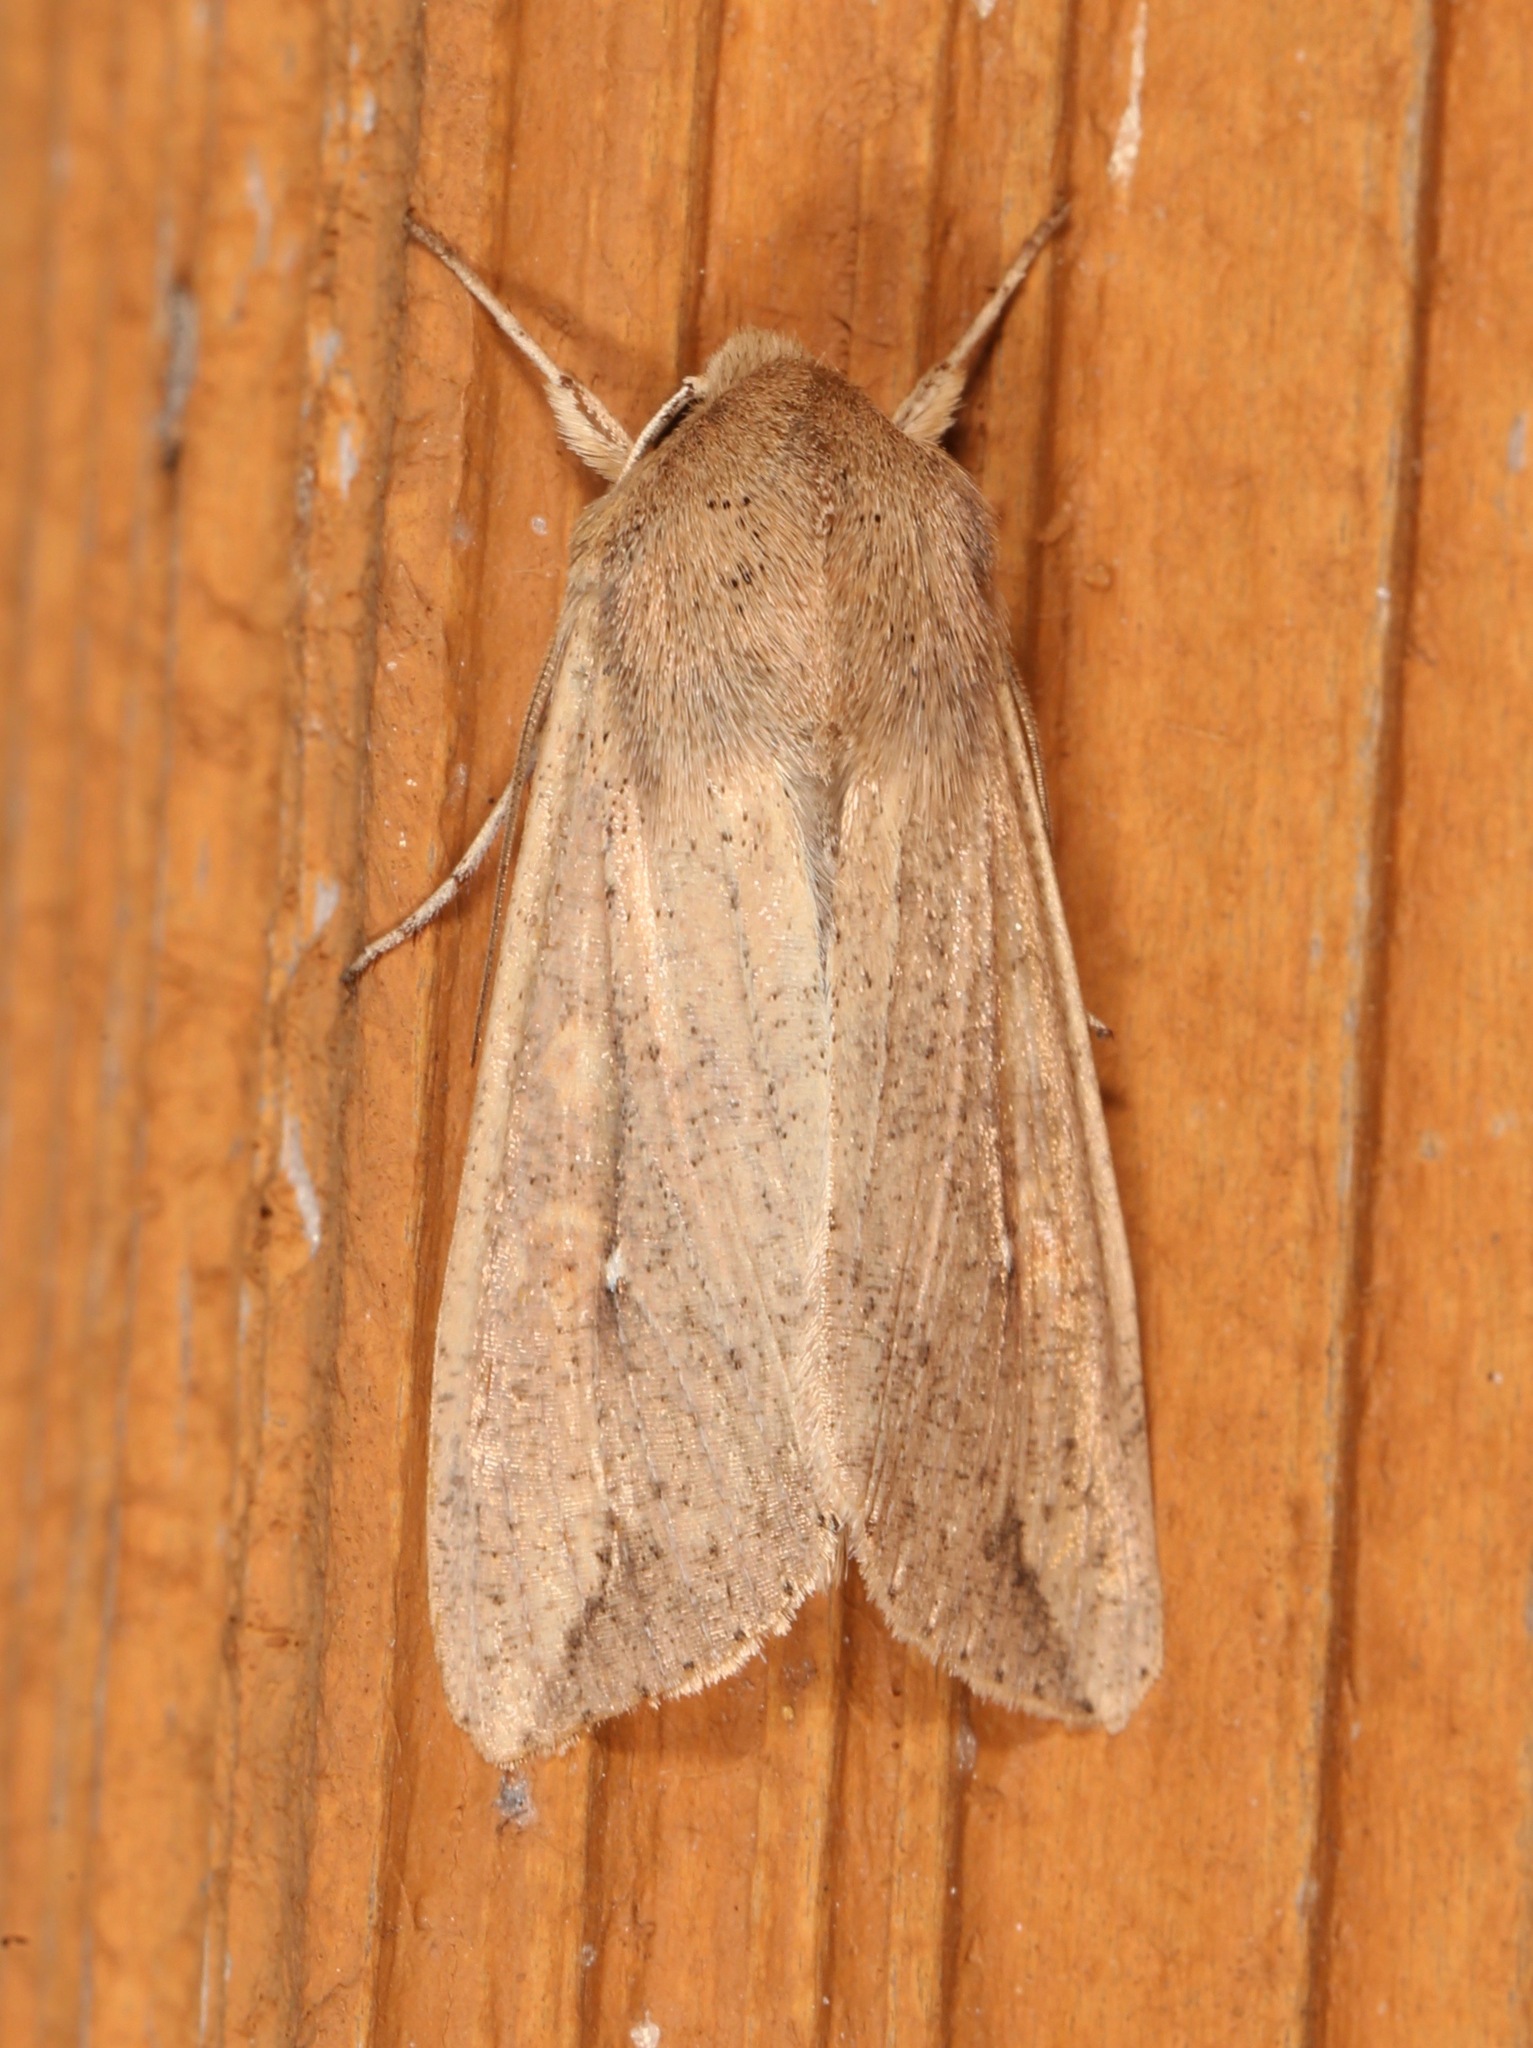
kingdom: Animalia
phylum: Arthropoda
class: Insecta
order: Lepidoptera
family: Noctuidae
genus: Mythimna
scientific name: Mythimna unipuncta
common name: White-speck
